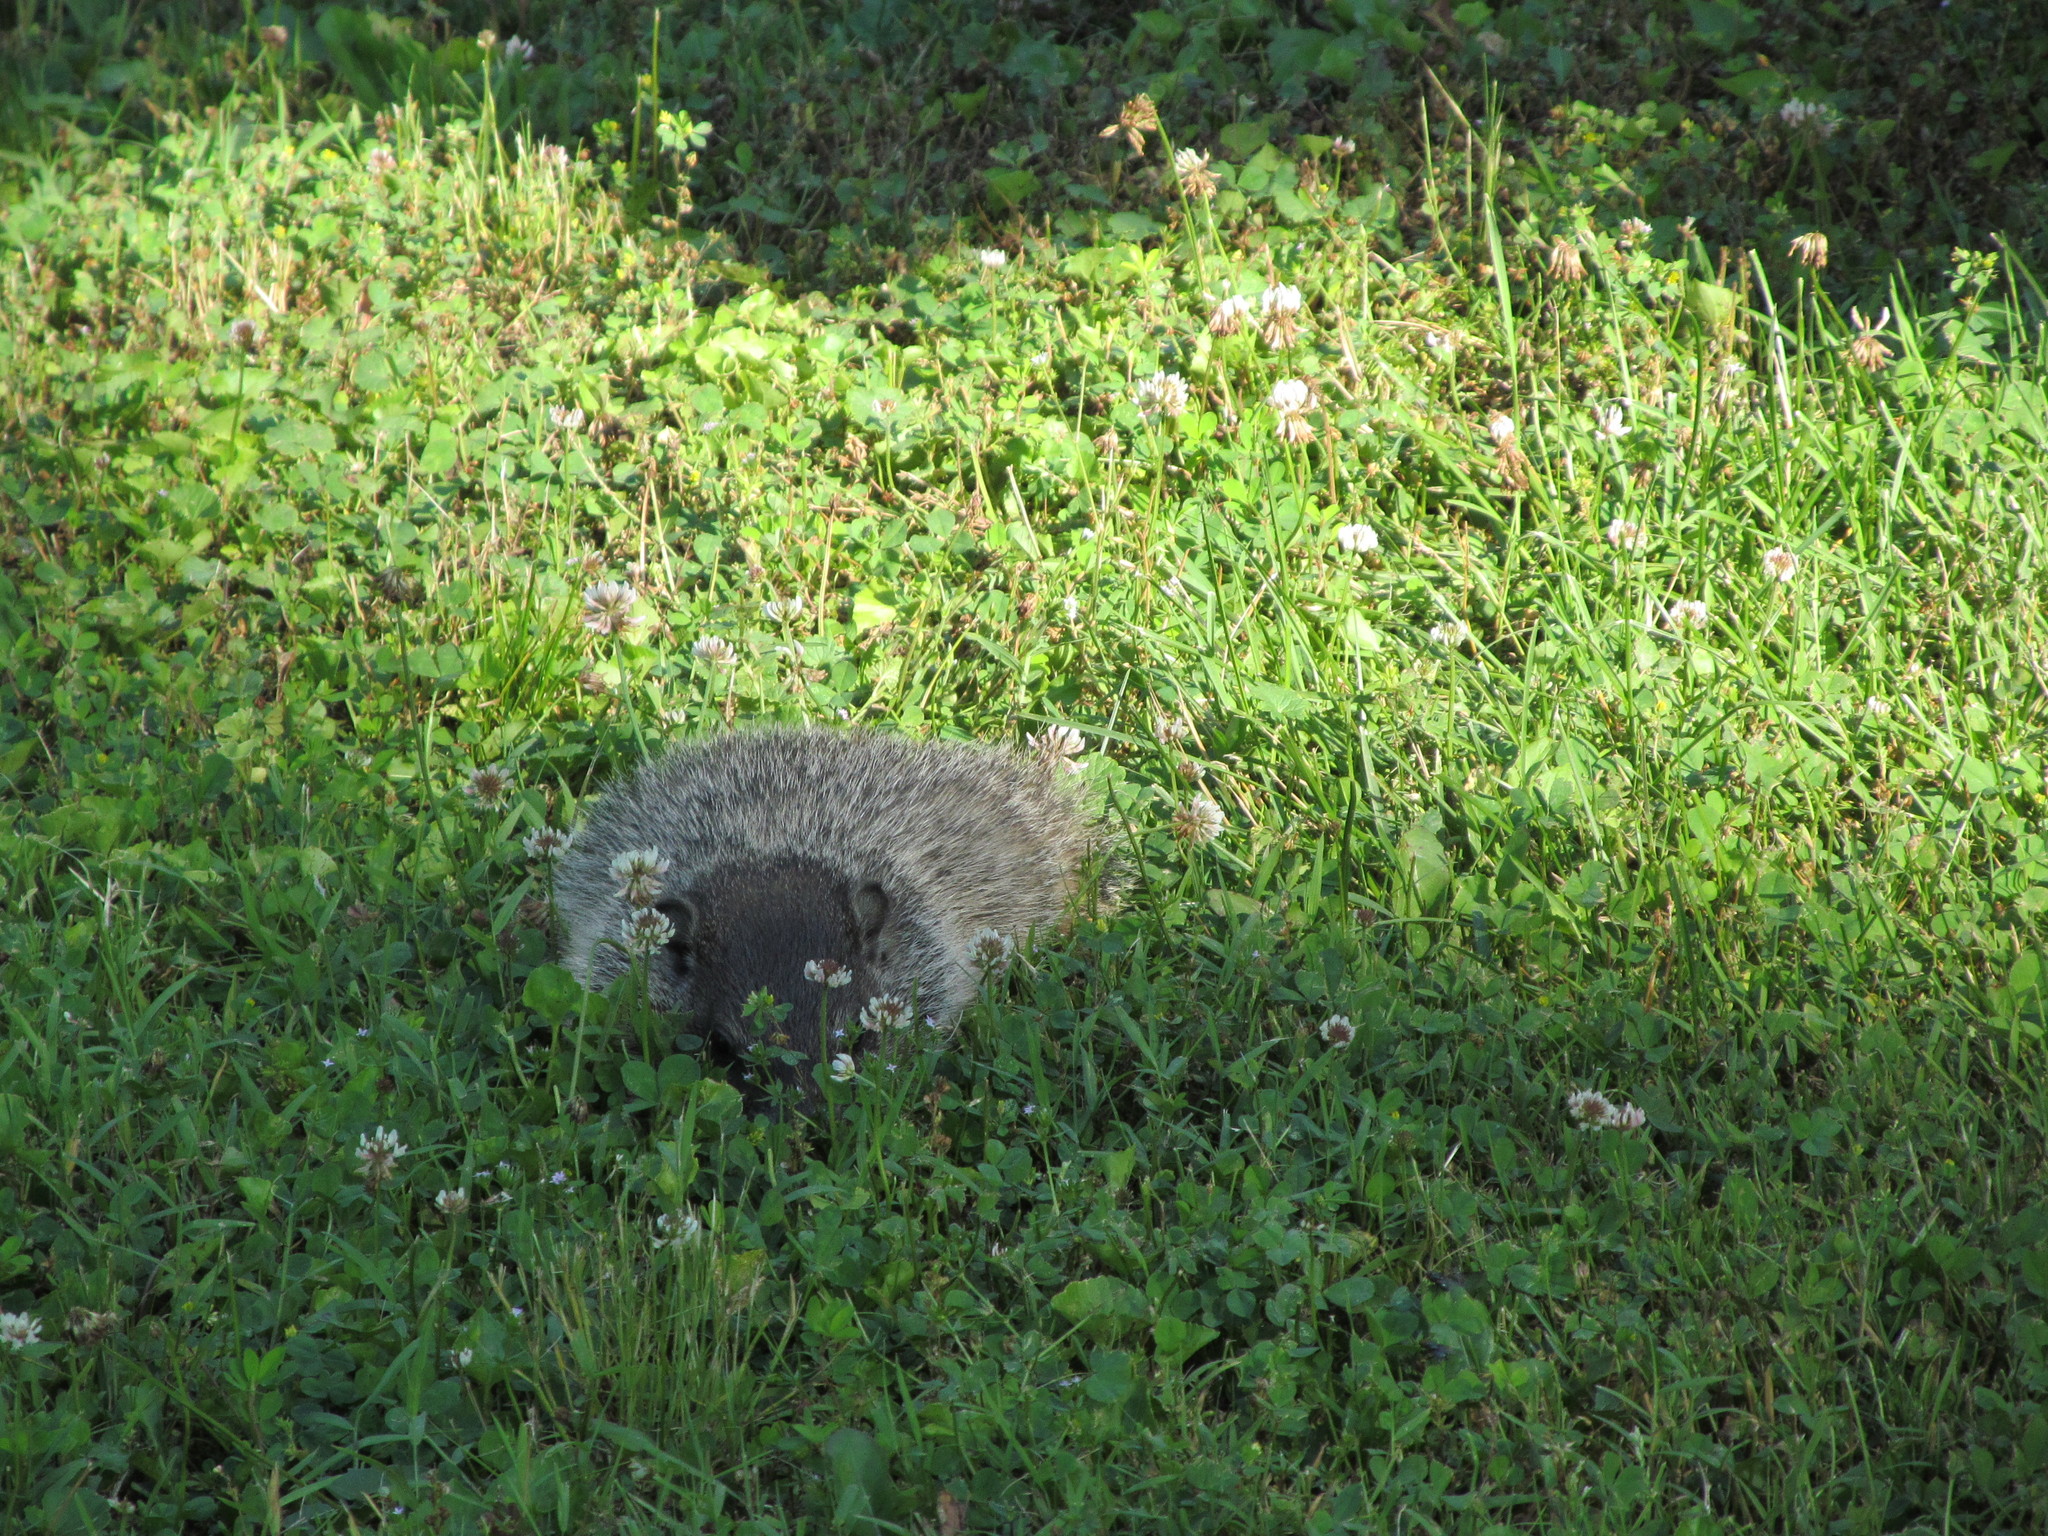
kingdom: Animalia
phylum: Chordata
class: Mammalia
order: Rodentia
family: Sciuridae
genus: Marmota
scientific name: Marmota monax
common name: Groundhog
